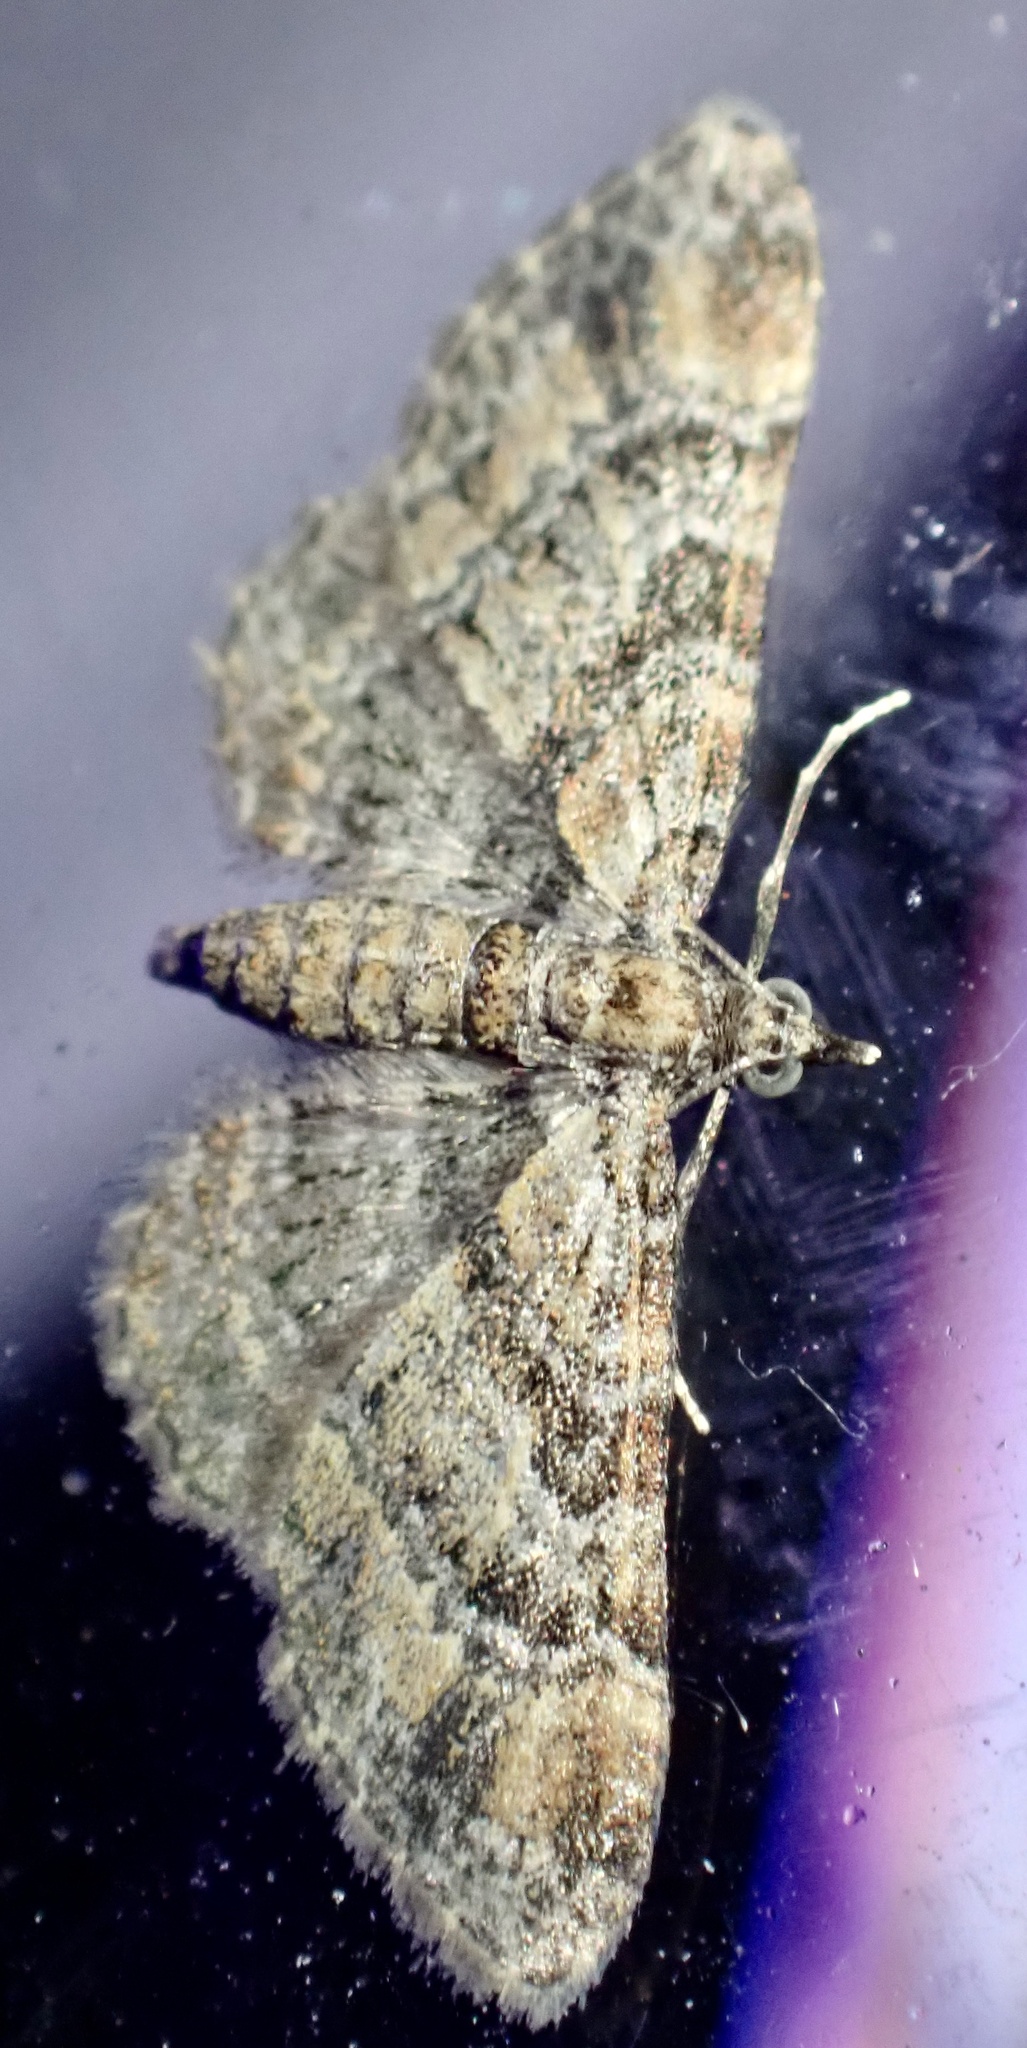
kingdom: Animalia
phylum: Arthropoda
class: Insecta
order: Lepidoptera
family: Geometridae
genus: Gymnoscelis
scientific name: Gymnoscelis rufifasciata
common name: Double-striped pug
